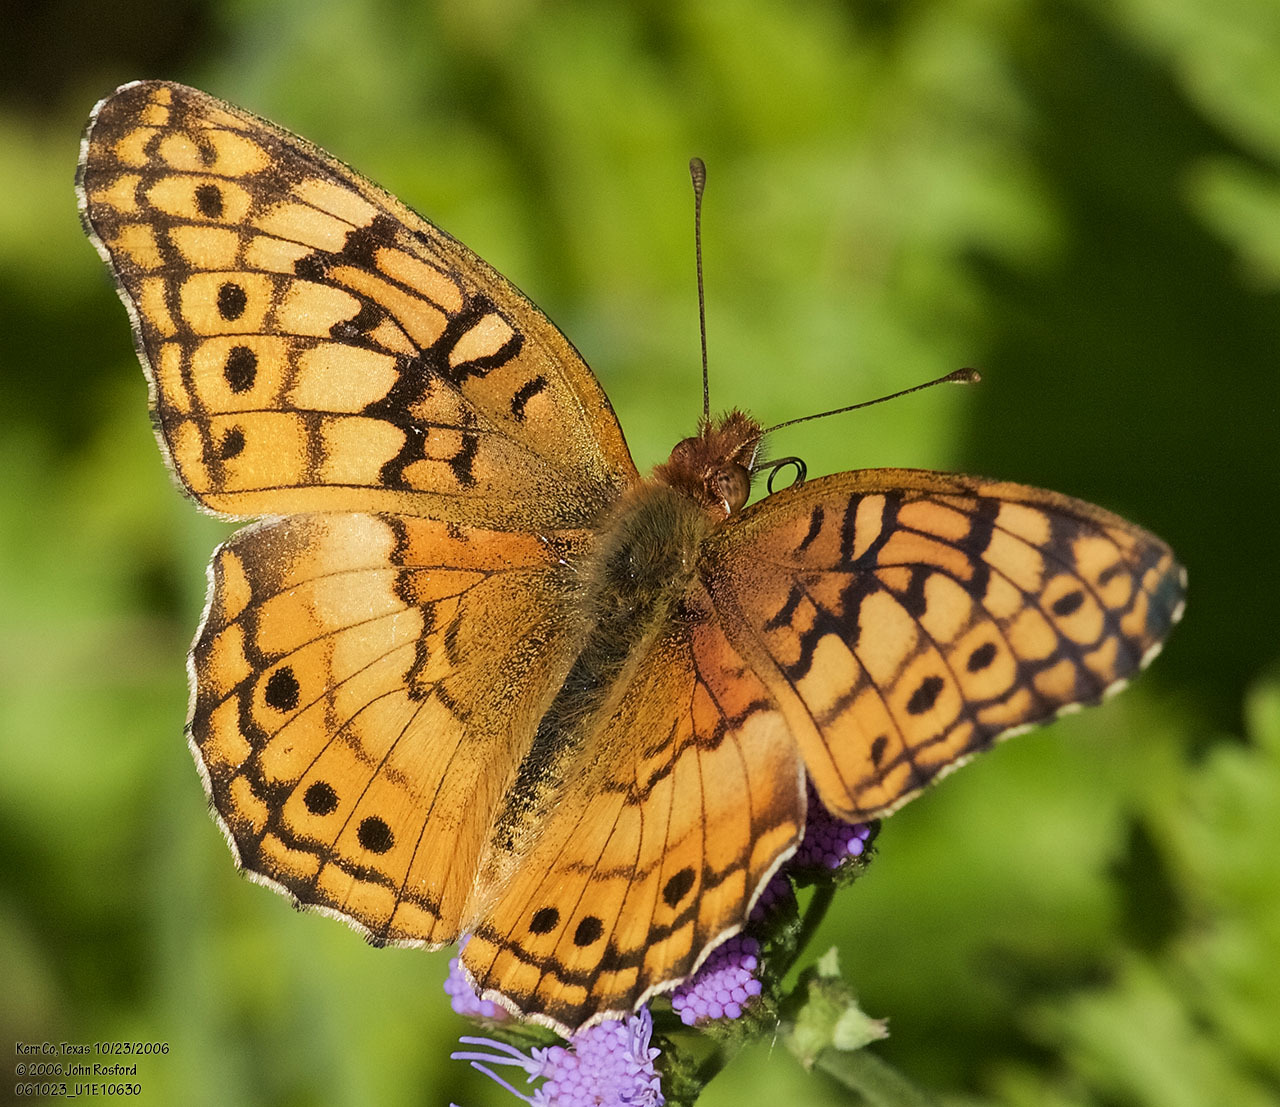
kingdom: Animalia
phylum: Arthropoda
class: Insecta
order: Lepidoptera
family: Nymphalidae
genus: Euptoieta
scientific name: Euptoieta claudia
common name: Variegated fritillary
